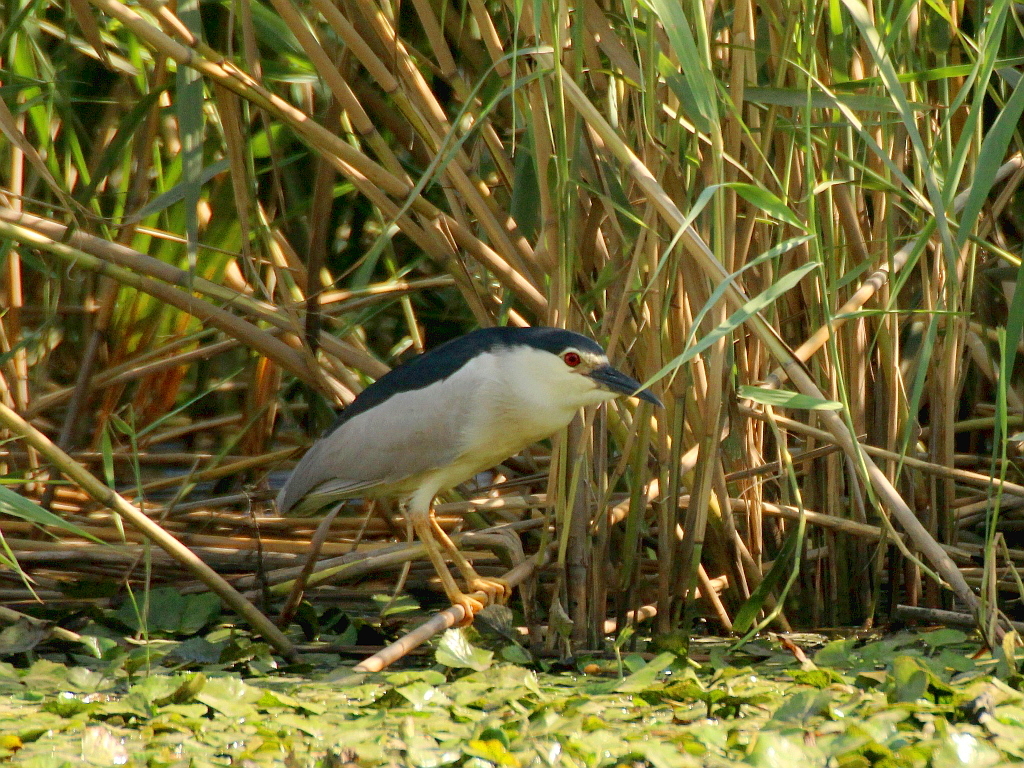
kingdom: Animalia
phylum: Chordata
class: Aves
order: Pelecaniformes
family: Ardeidae
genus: Nycticorax
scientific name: Nycticorax nycticorax
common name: Black-crowned night heron
